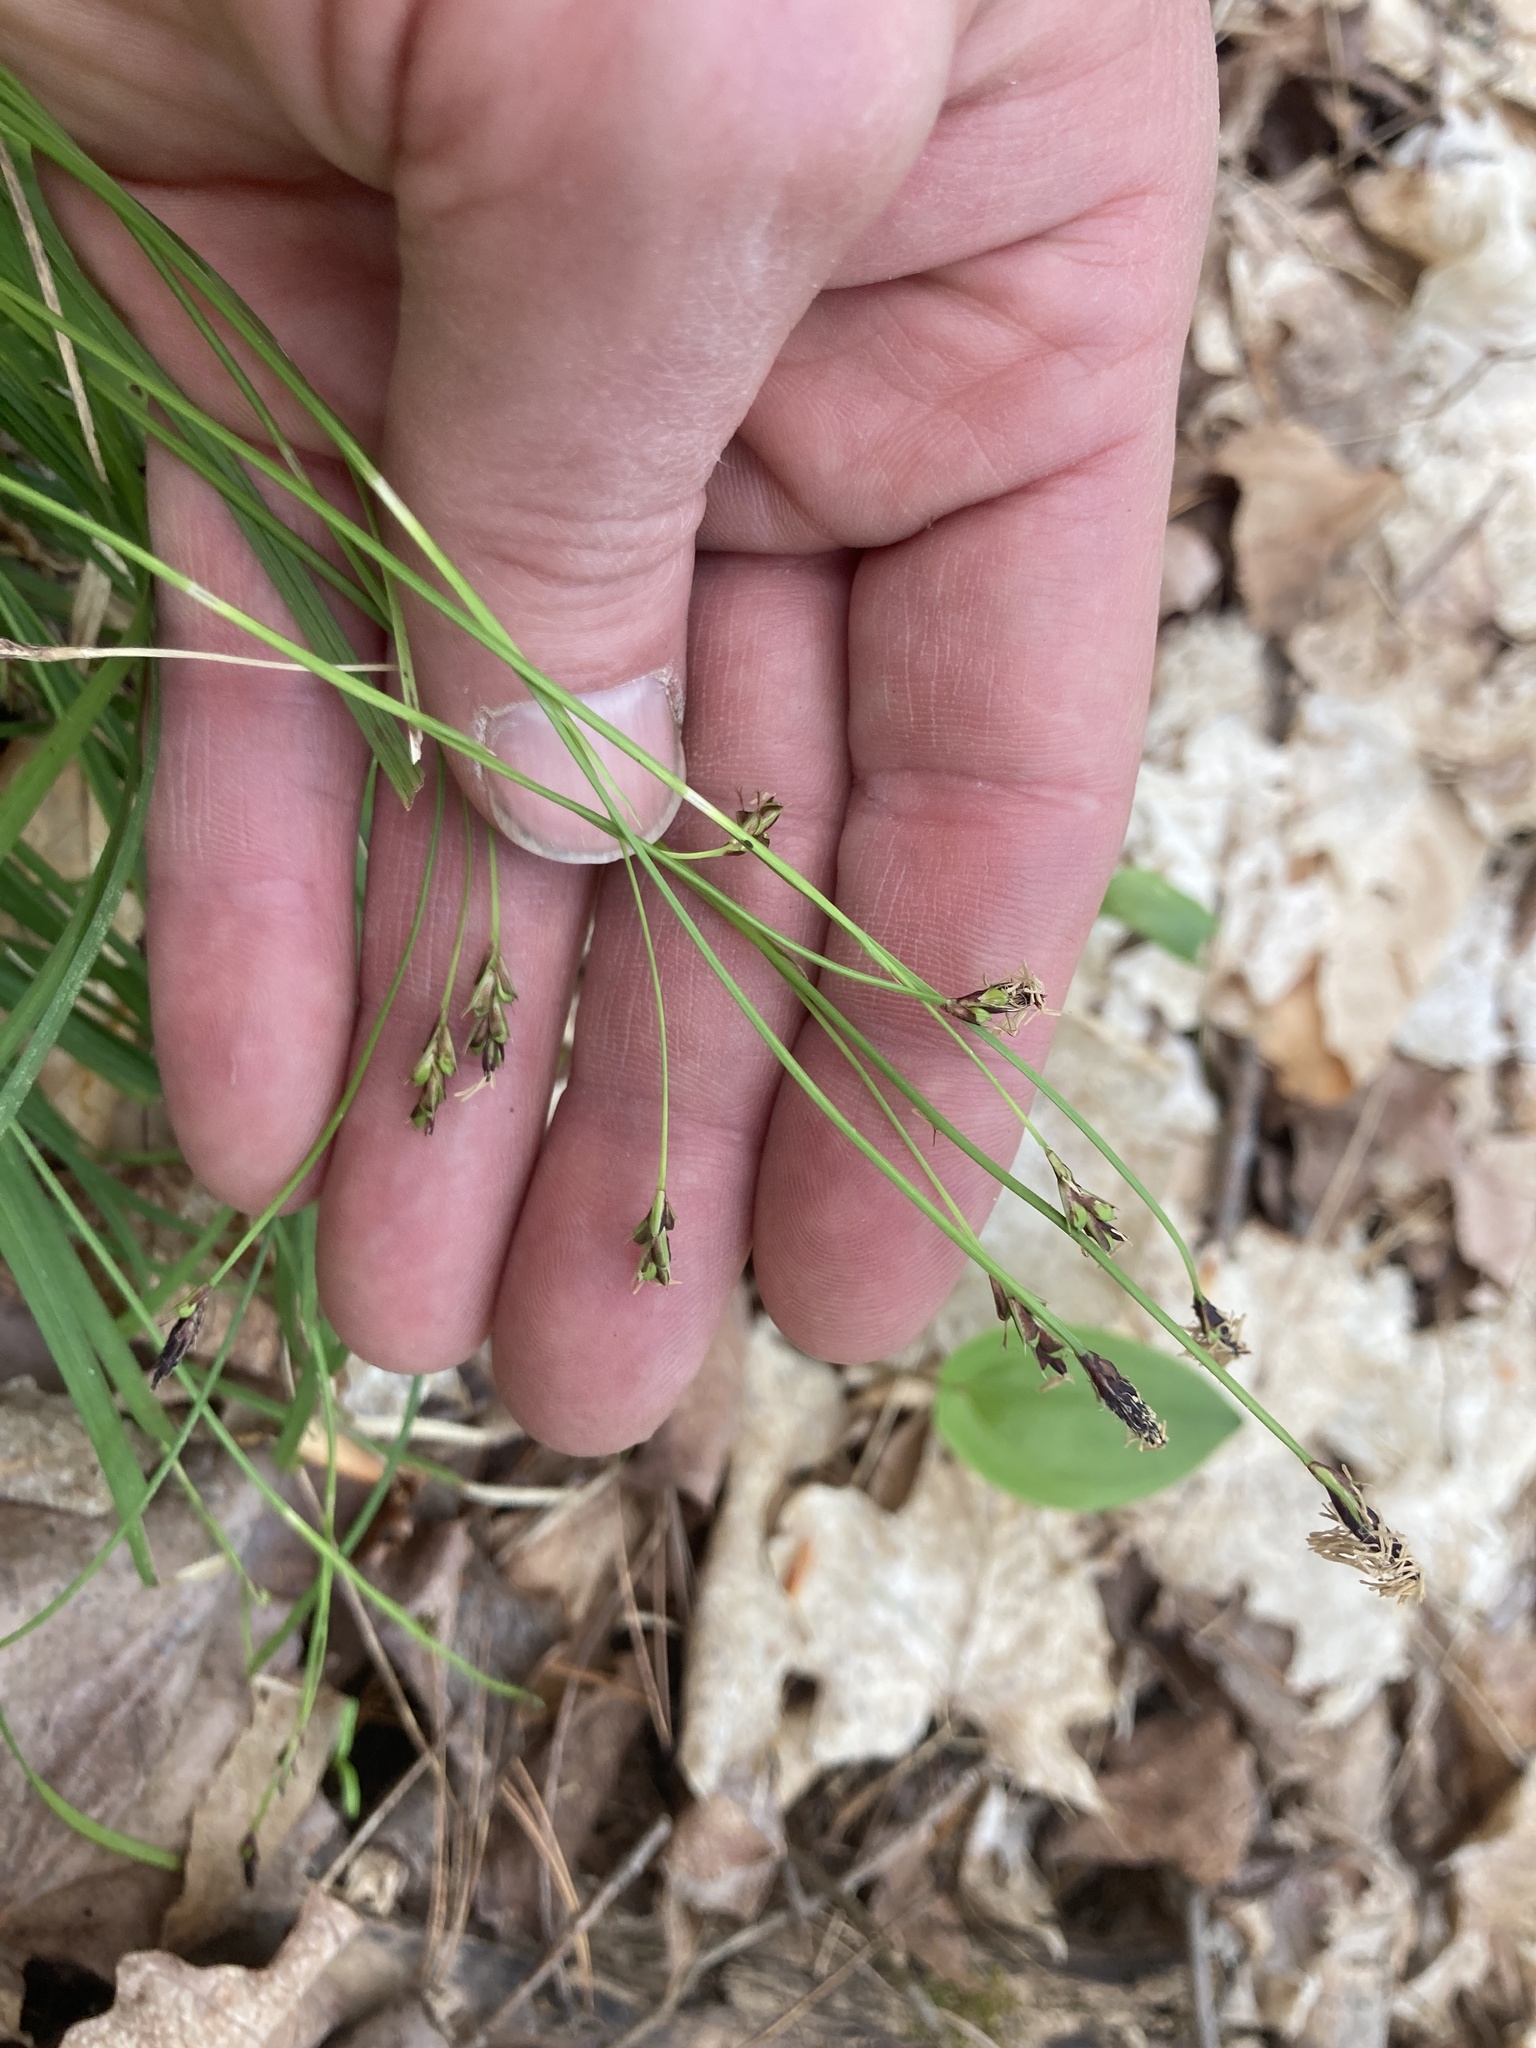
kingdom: Plantae
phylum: Tracheophyta
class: Liliopsida
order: Poales
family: Cyperaceae
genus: Carex
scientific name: Carex pedunculata
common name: Pedunculate sedge
